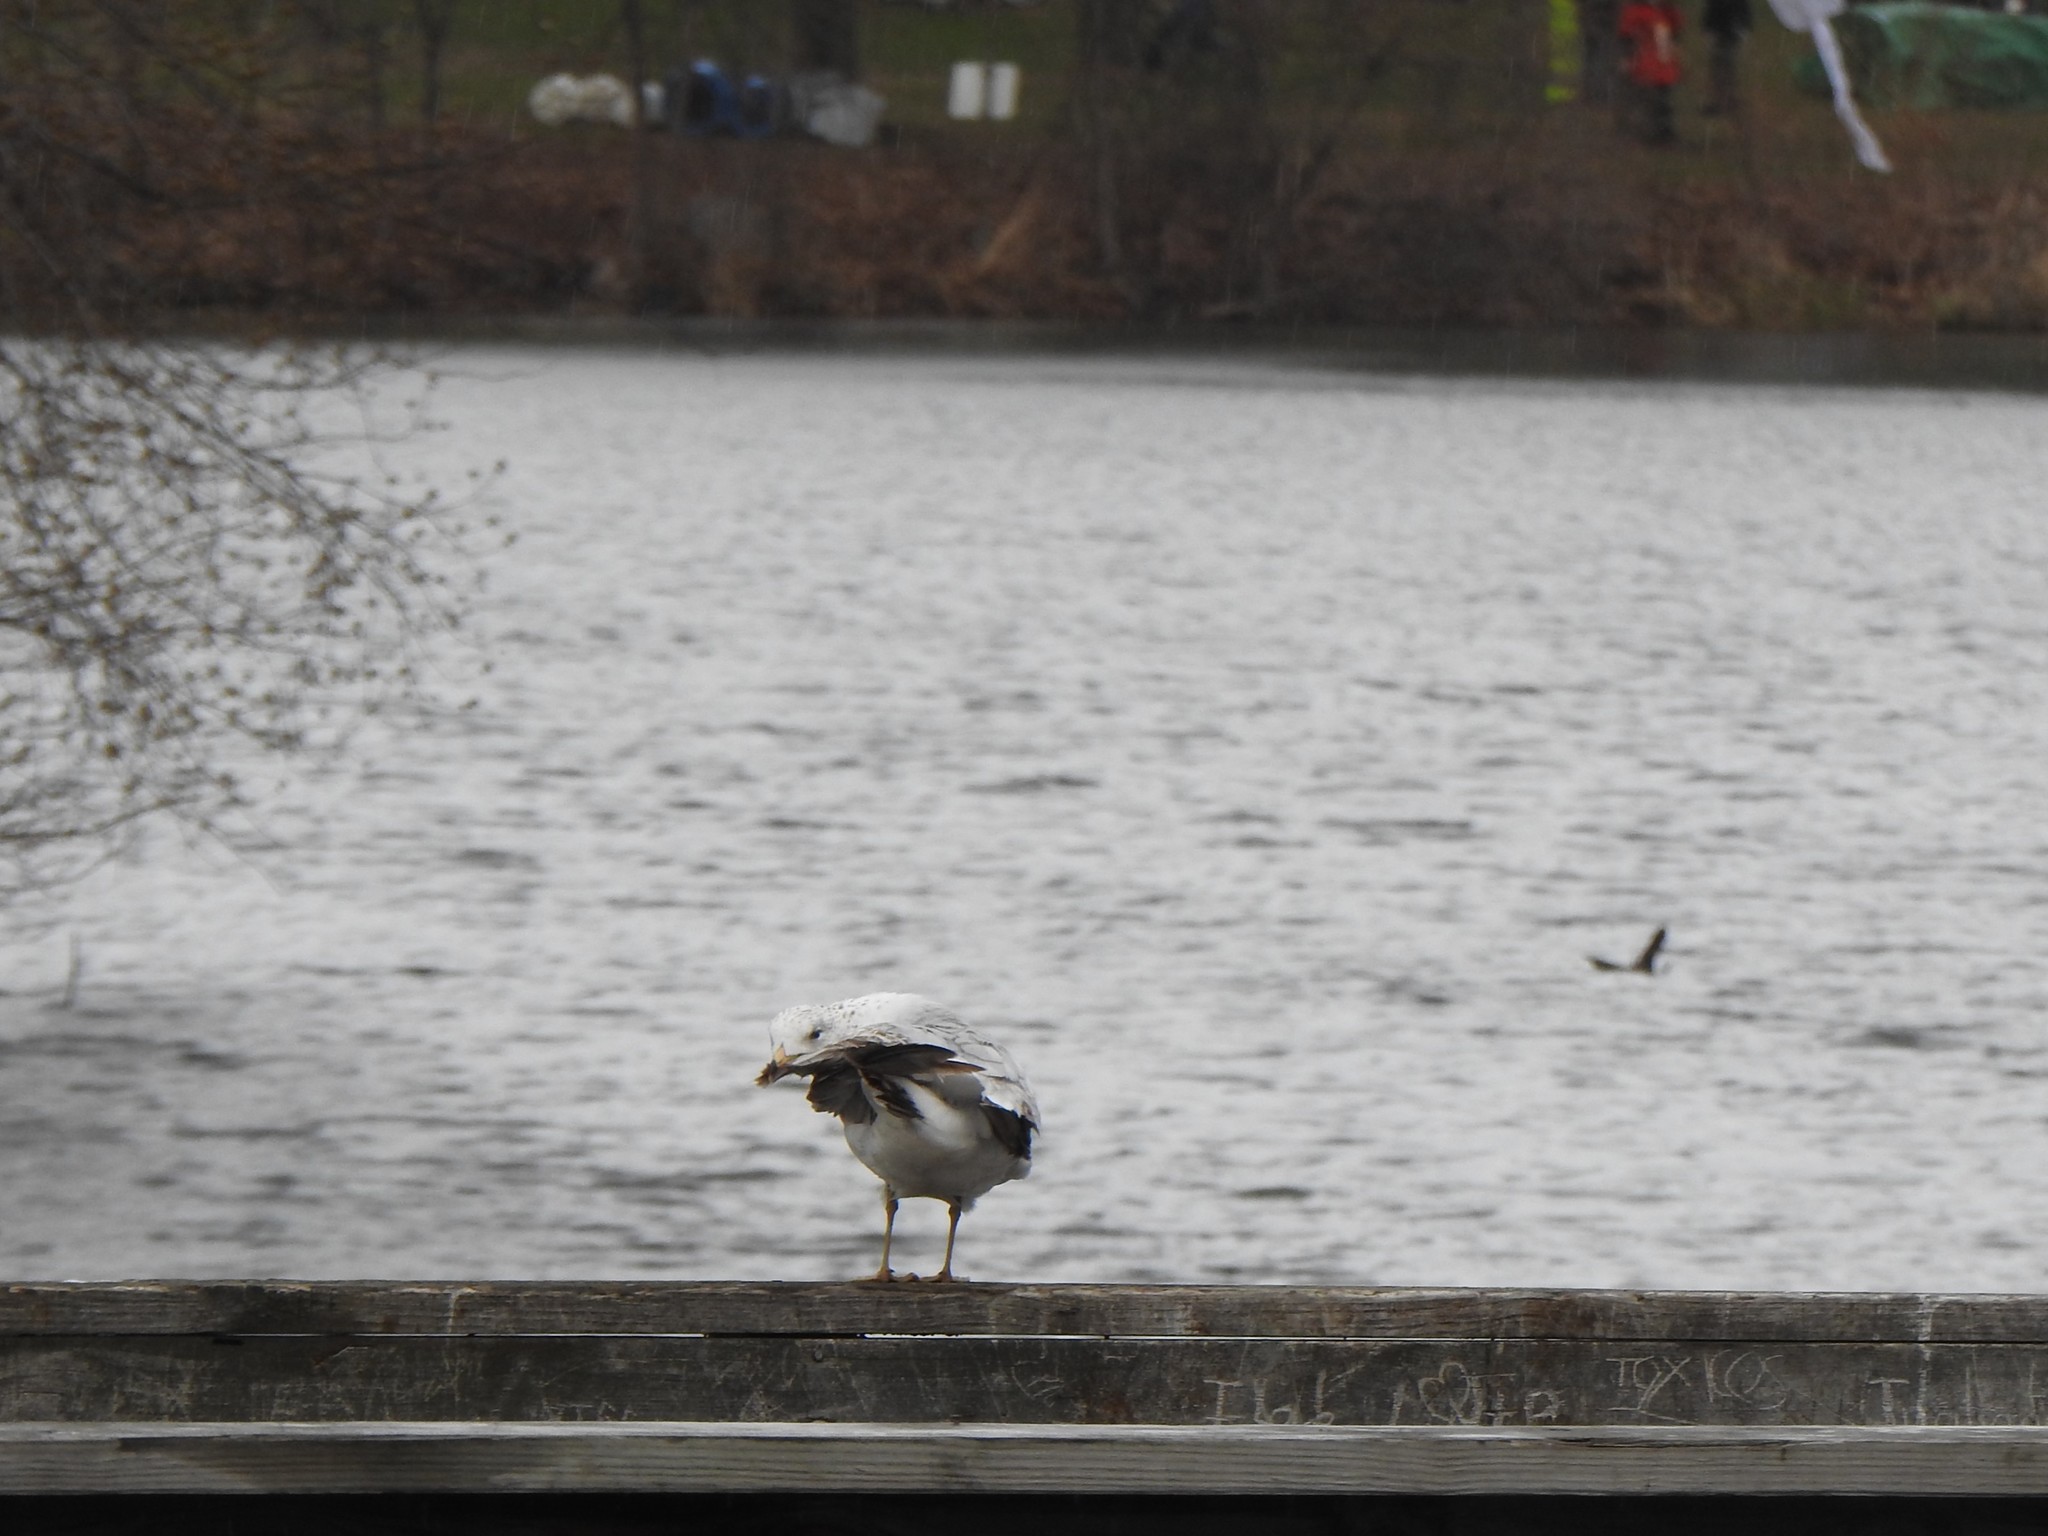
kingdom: Animalia
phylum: Chordata
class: Aves
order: Charadriiformes
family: Laridae
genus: Larus
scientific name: Larus delawarensis
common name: Ring-billed gull
